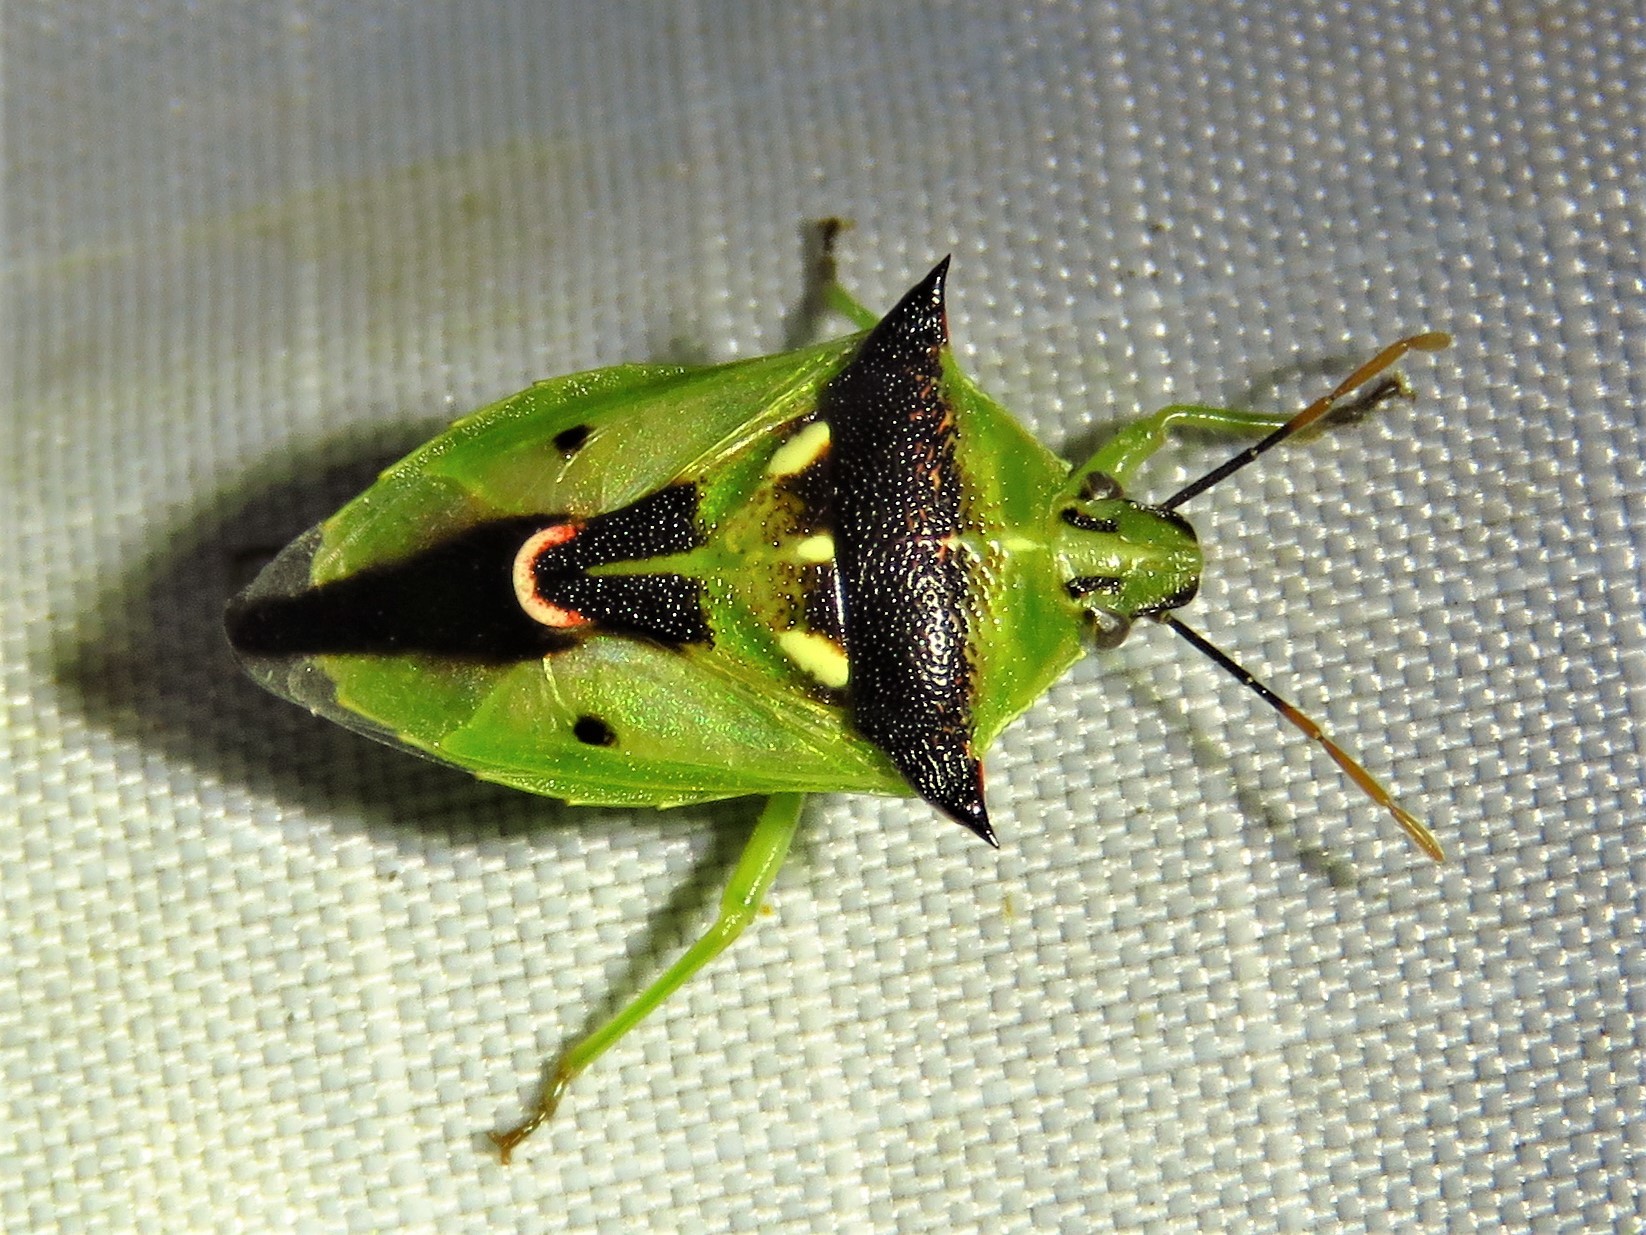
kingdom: Animalia
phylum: Arthropoda
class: Insecta
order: Hemiptera
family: Pentatomidae
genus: Tylospilus
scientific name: Tylospilus acutissimus
